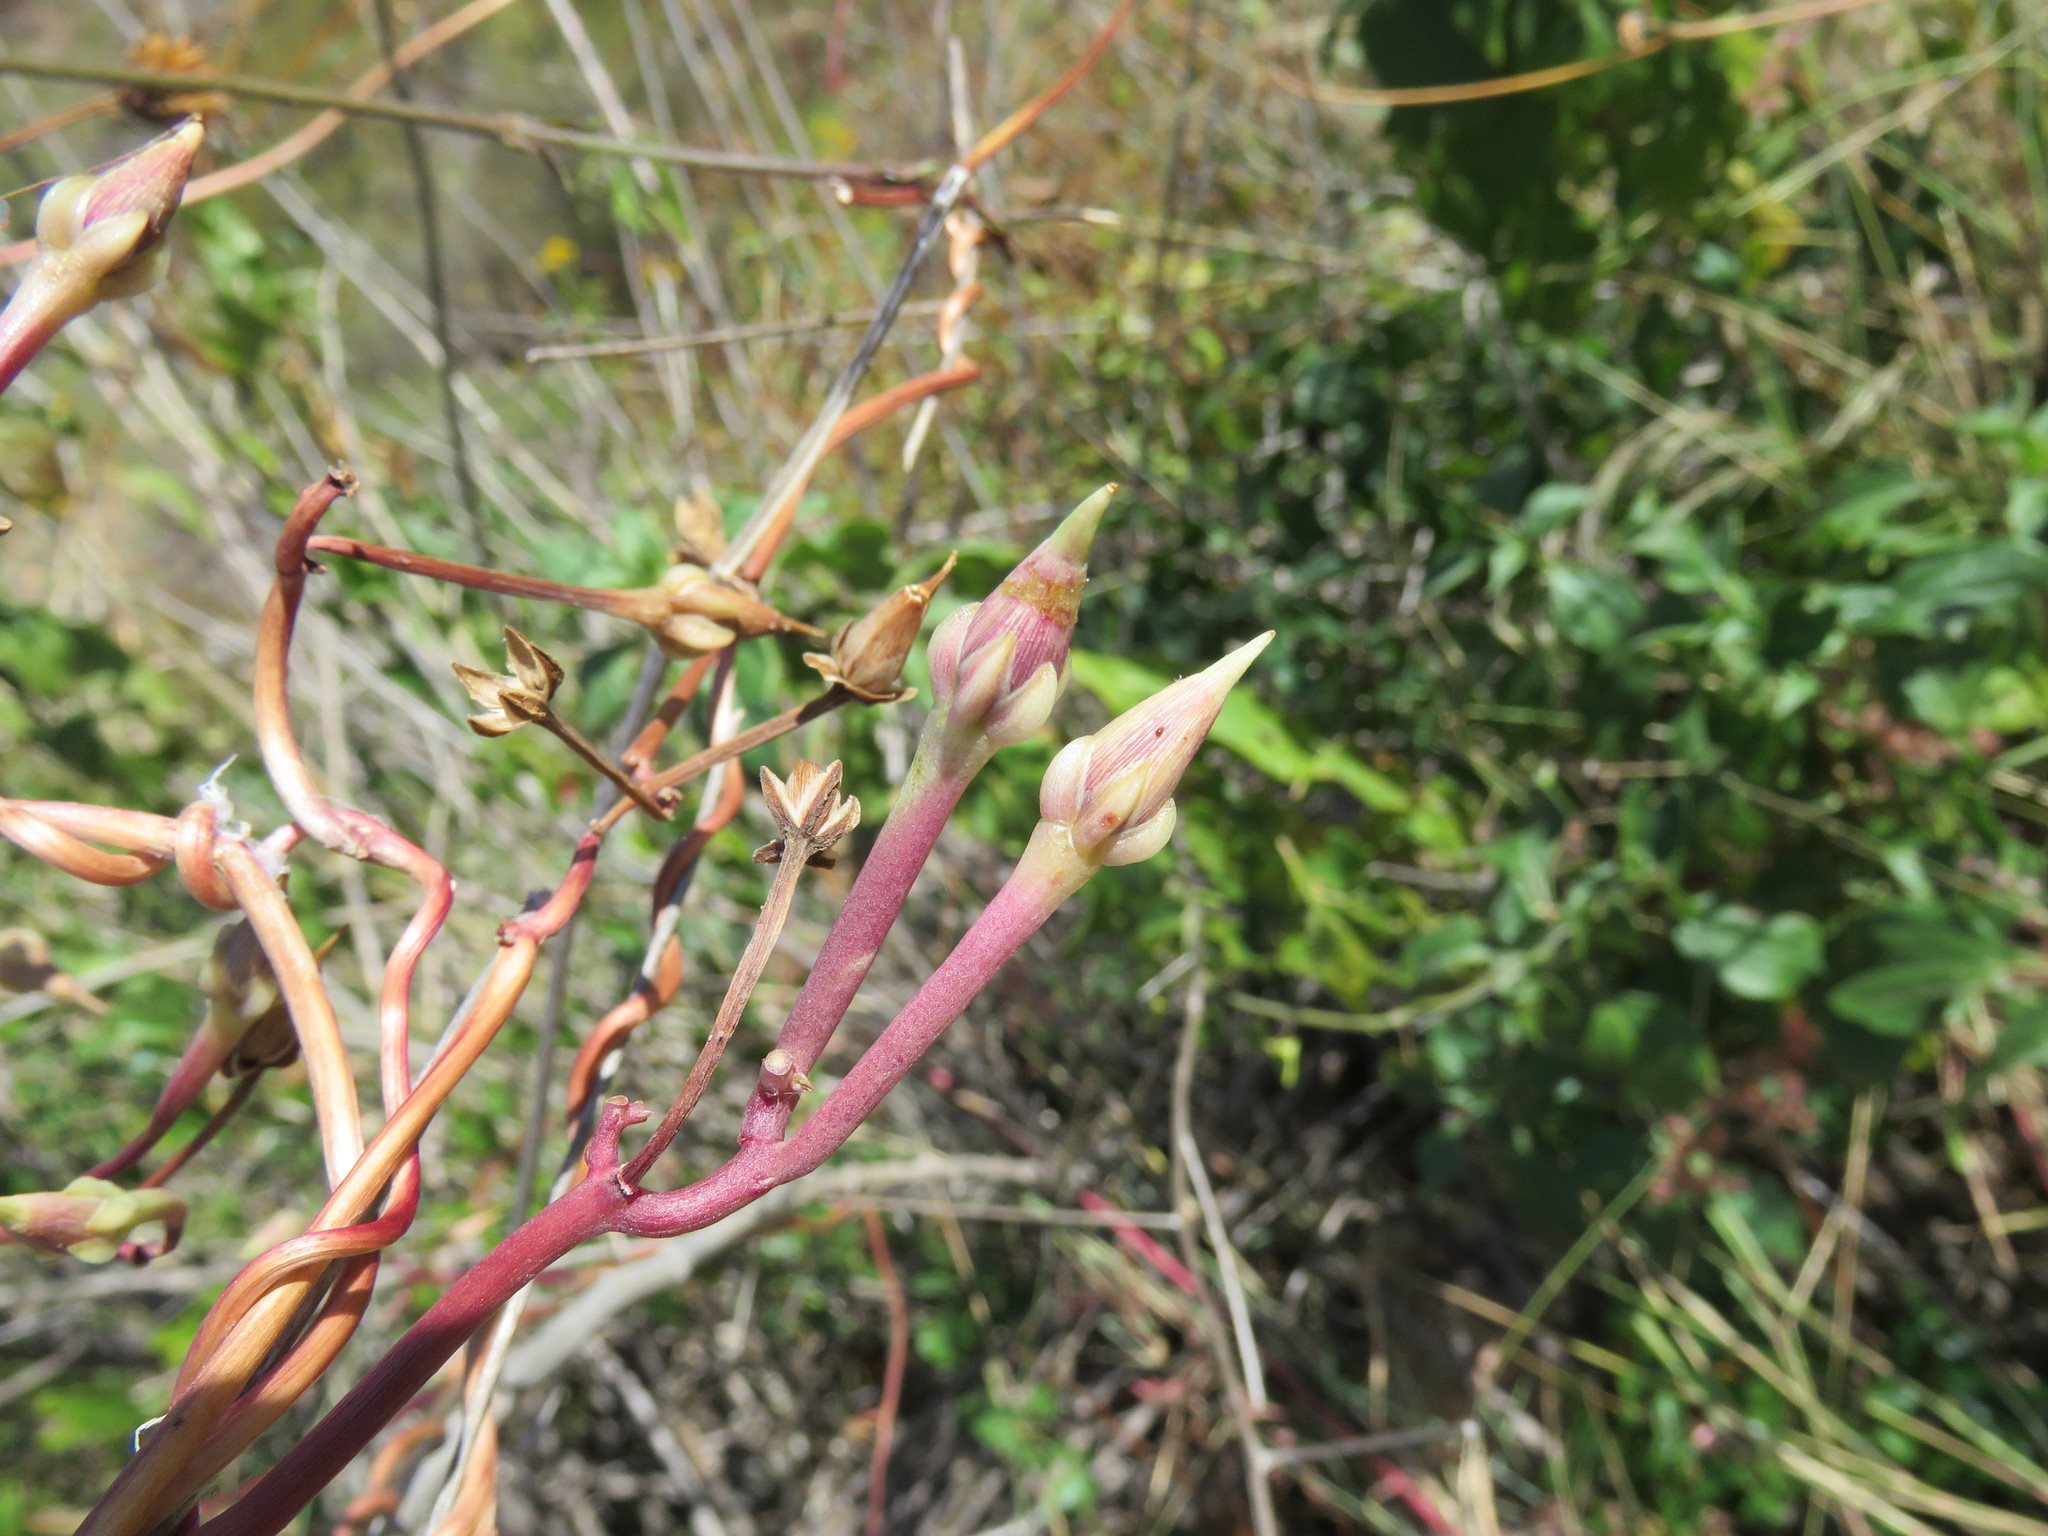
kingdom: Plantae
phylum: Tracheophyta
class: Magnoliopsida
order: Solanales
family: Convolvulaceae
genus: Ipomoea
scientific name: Ipomoea tricolor
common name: Morning-glory
